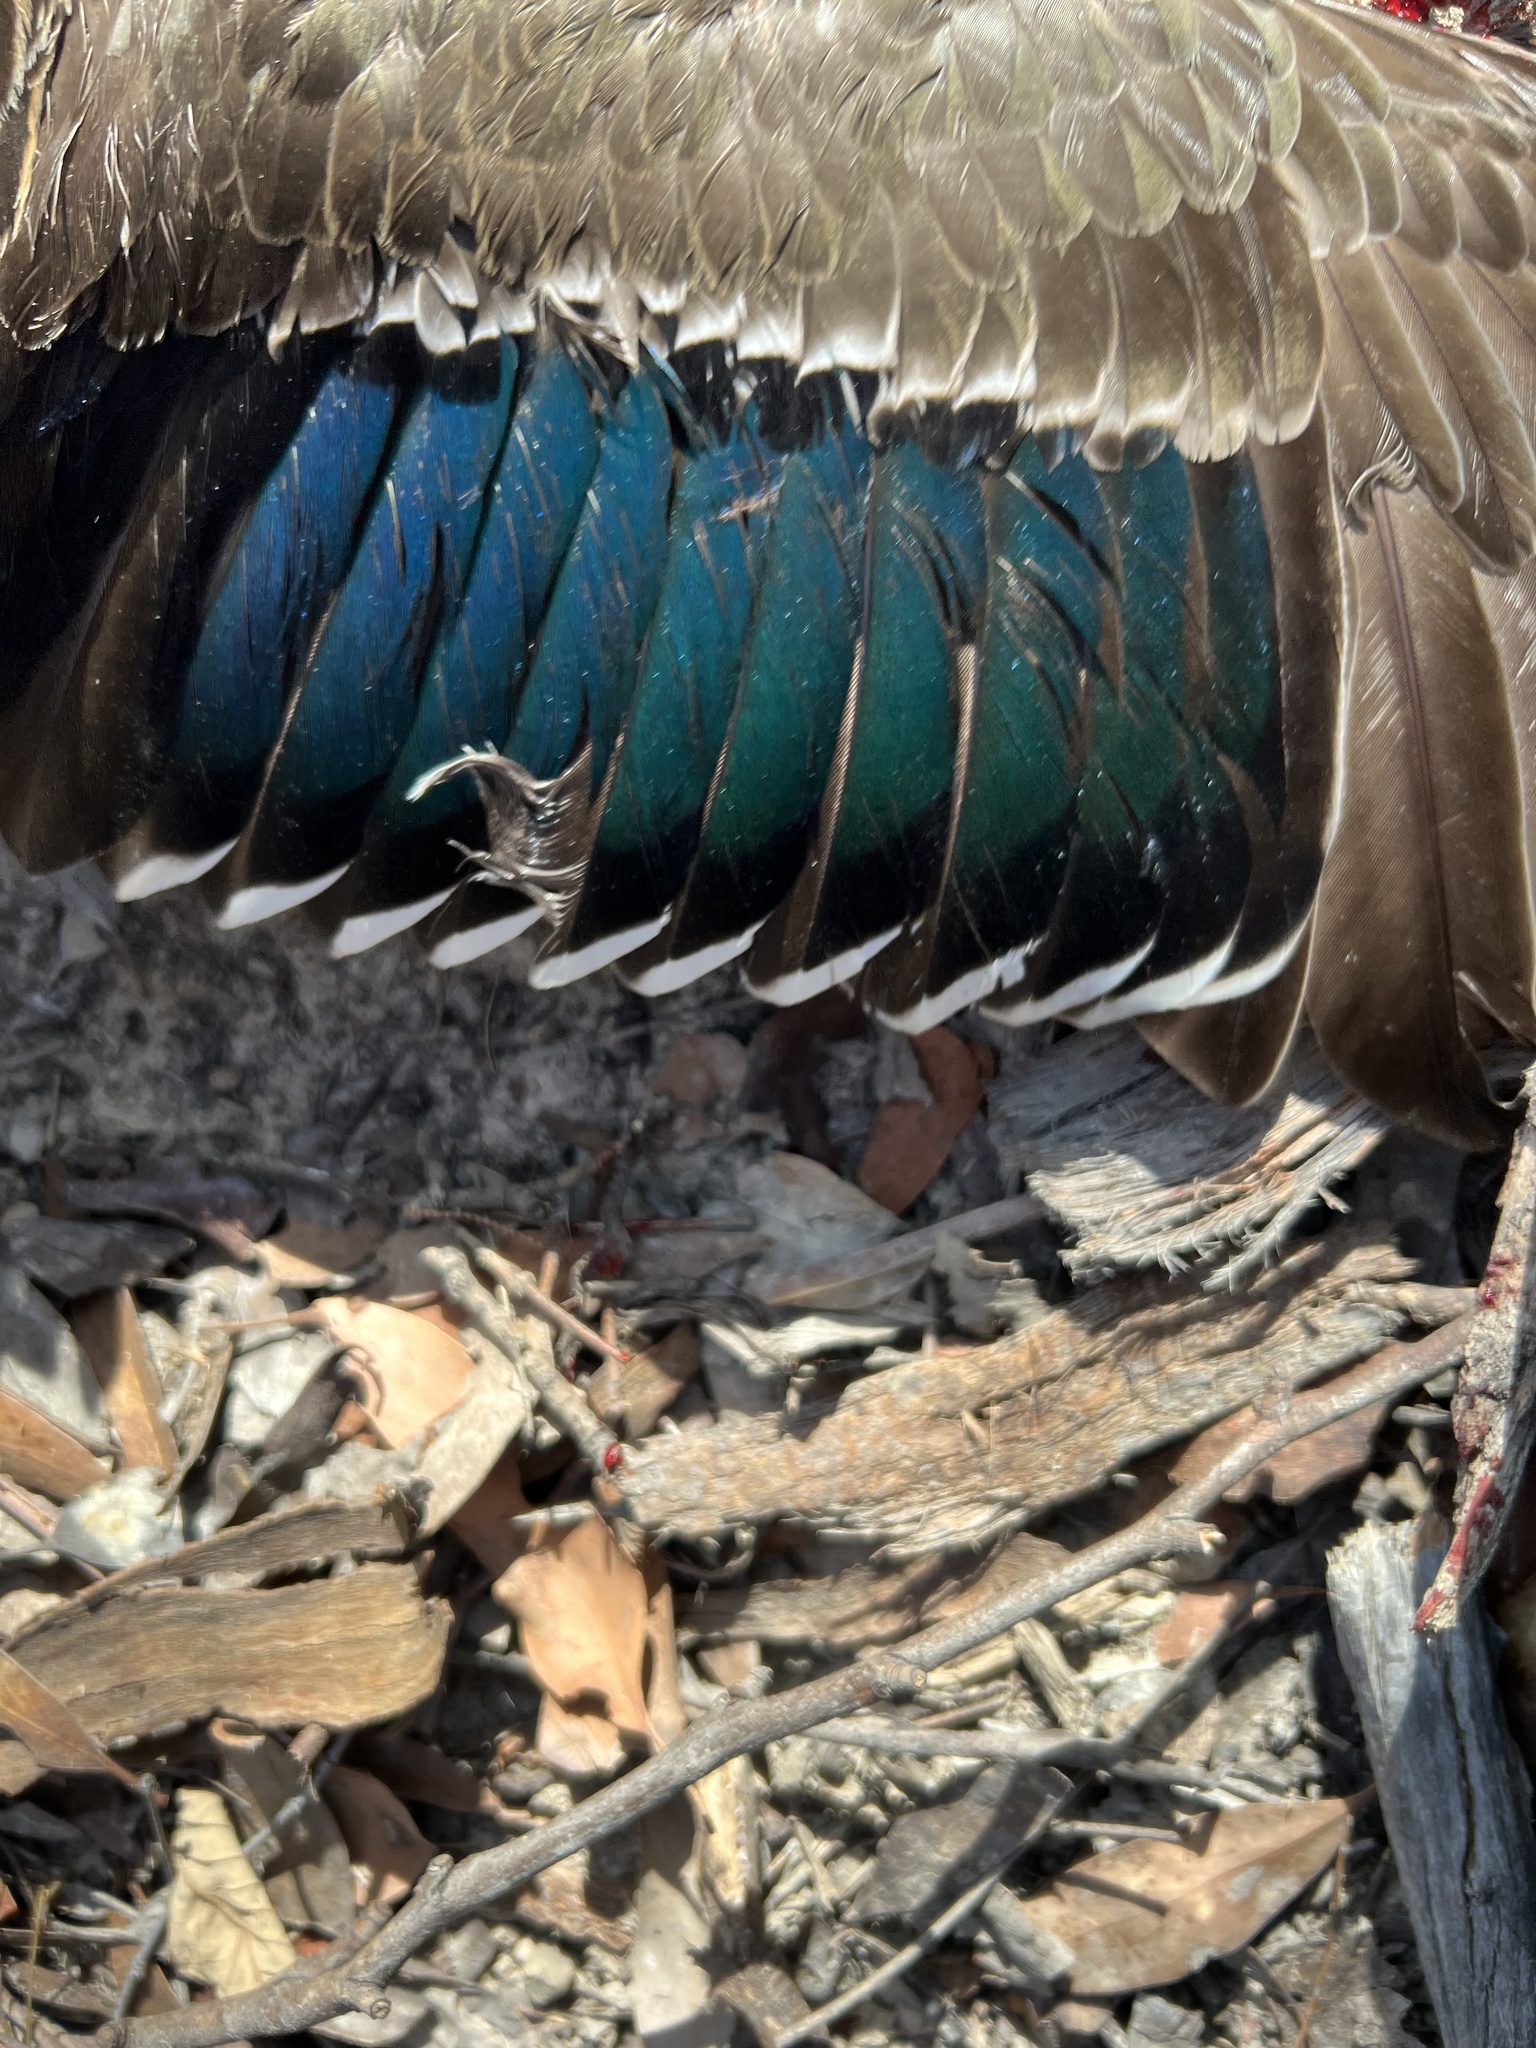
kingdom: Animalia
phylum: Chordata
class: Aves
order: Anseriformes
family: Anatidae
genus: Anas
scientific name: Anas
